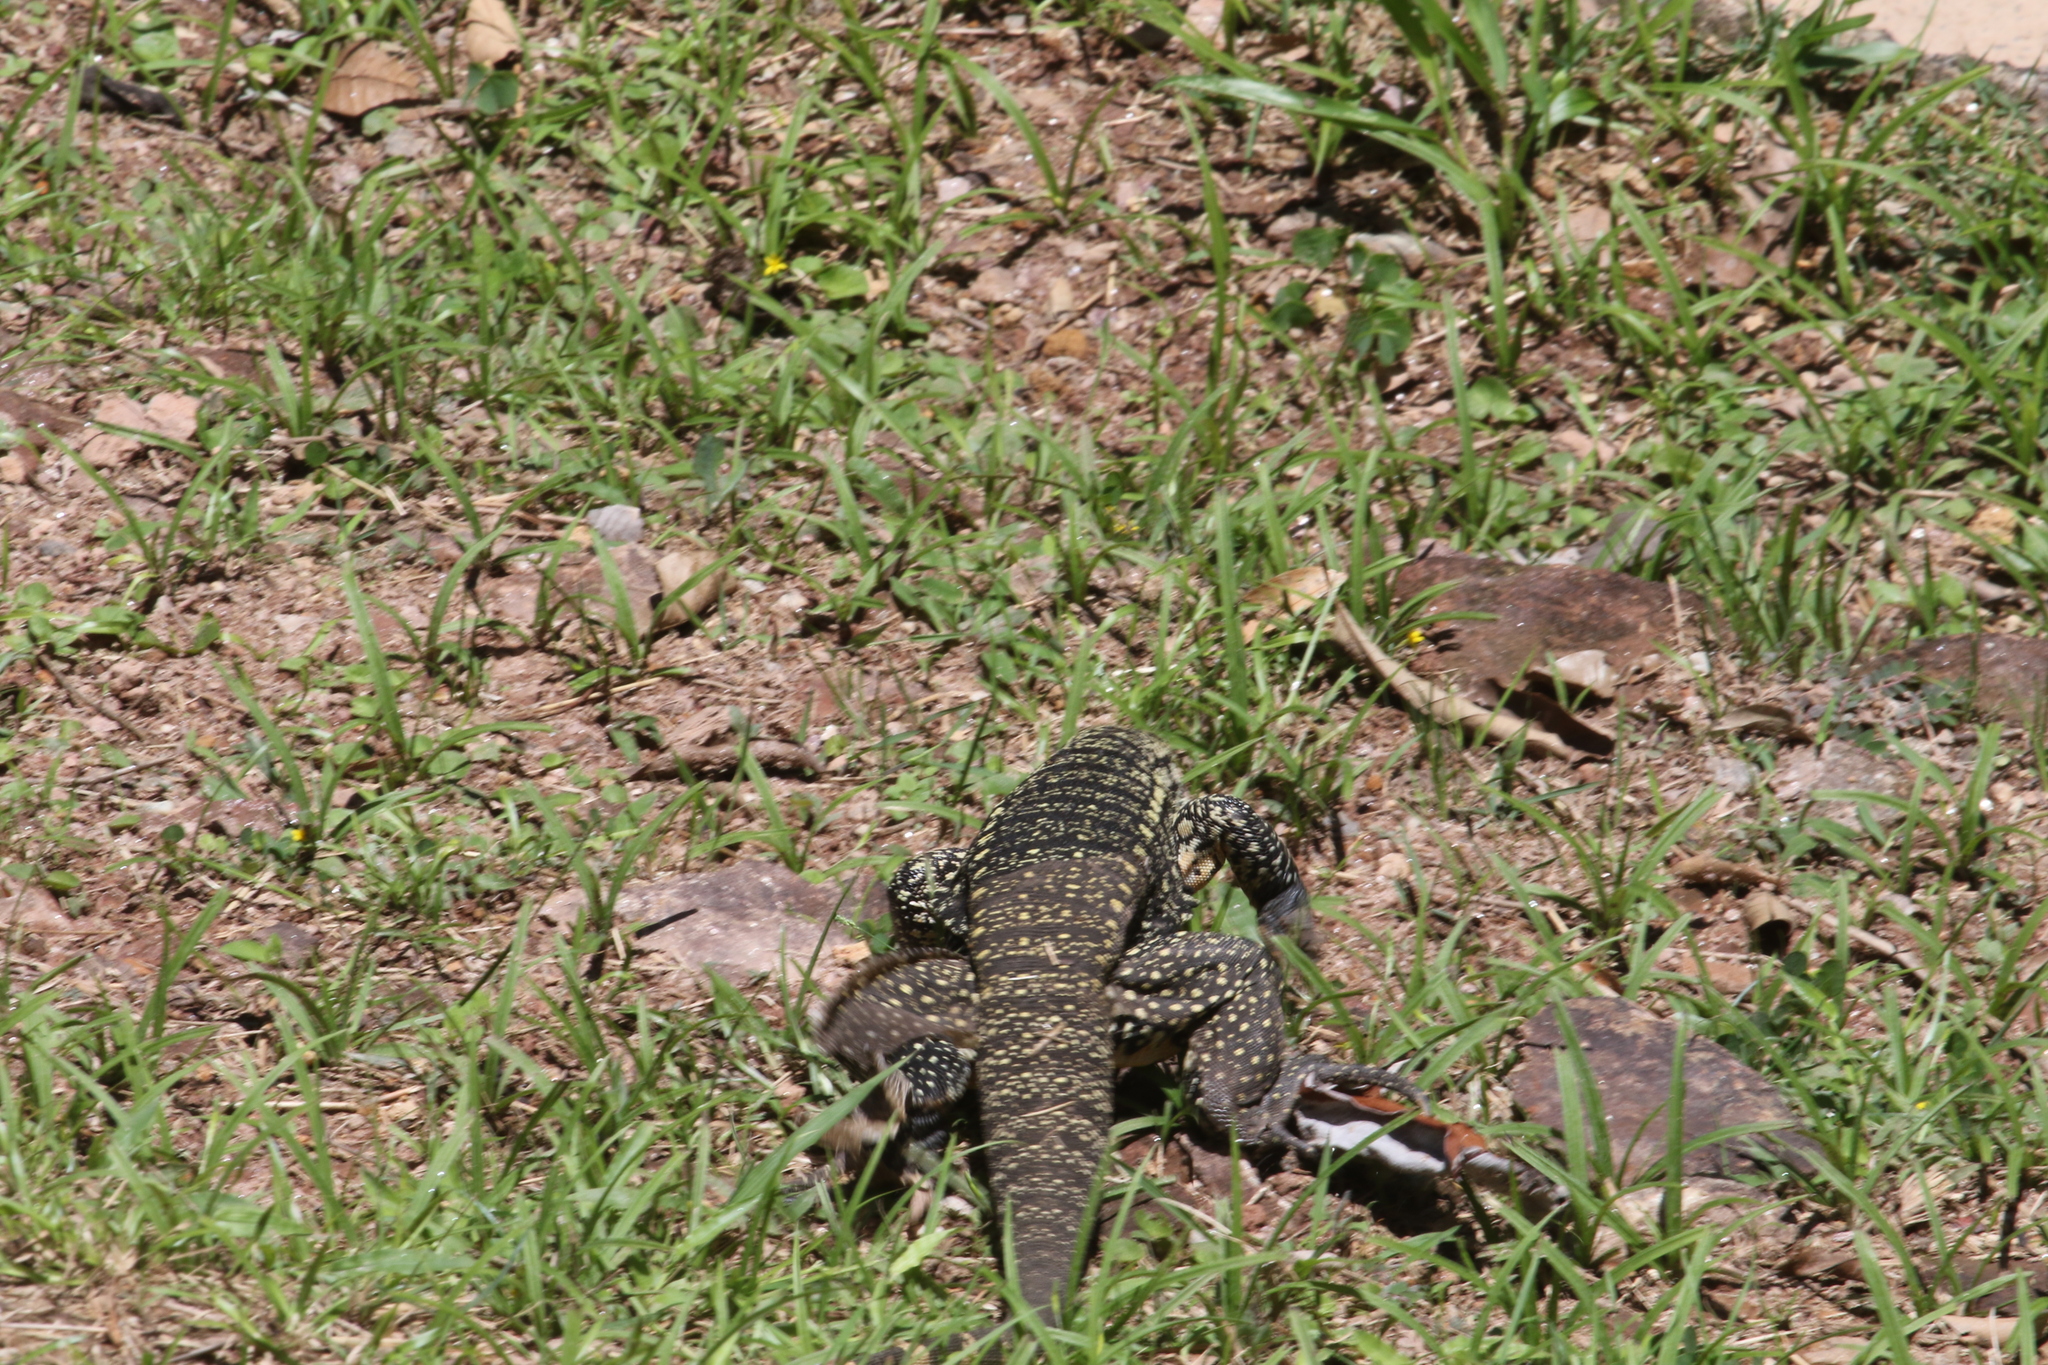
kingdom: Animalia
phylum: Chordata
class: Squamata
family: Teiidae
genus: Salvator
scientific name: Salvator merianae
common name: Argentine black and white tegu
